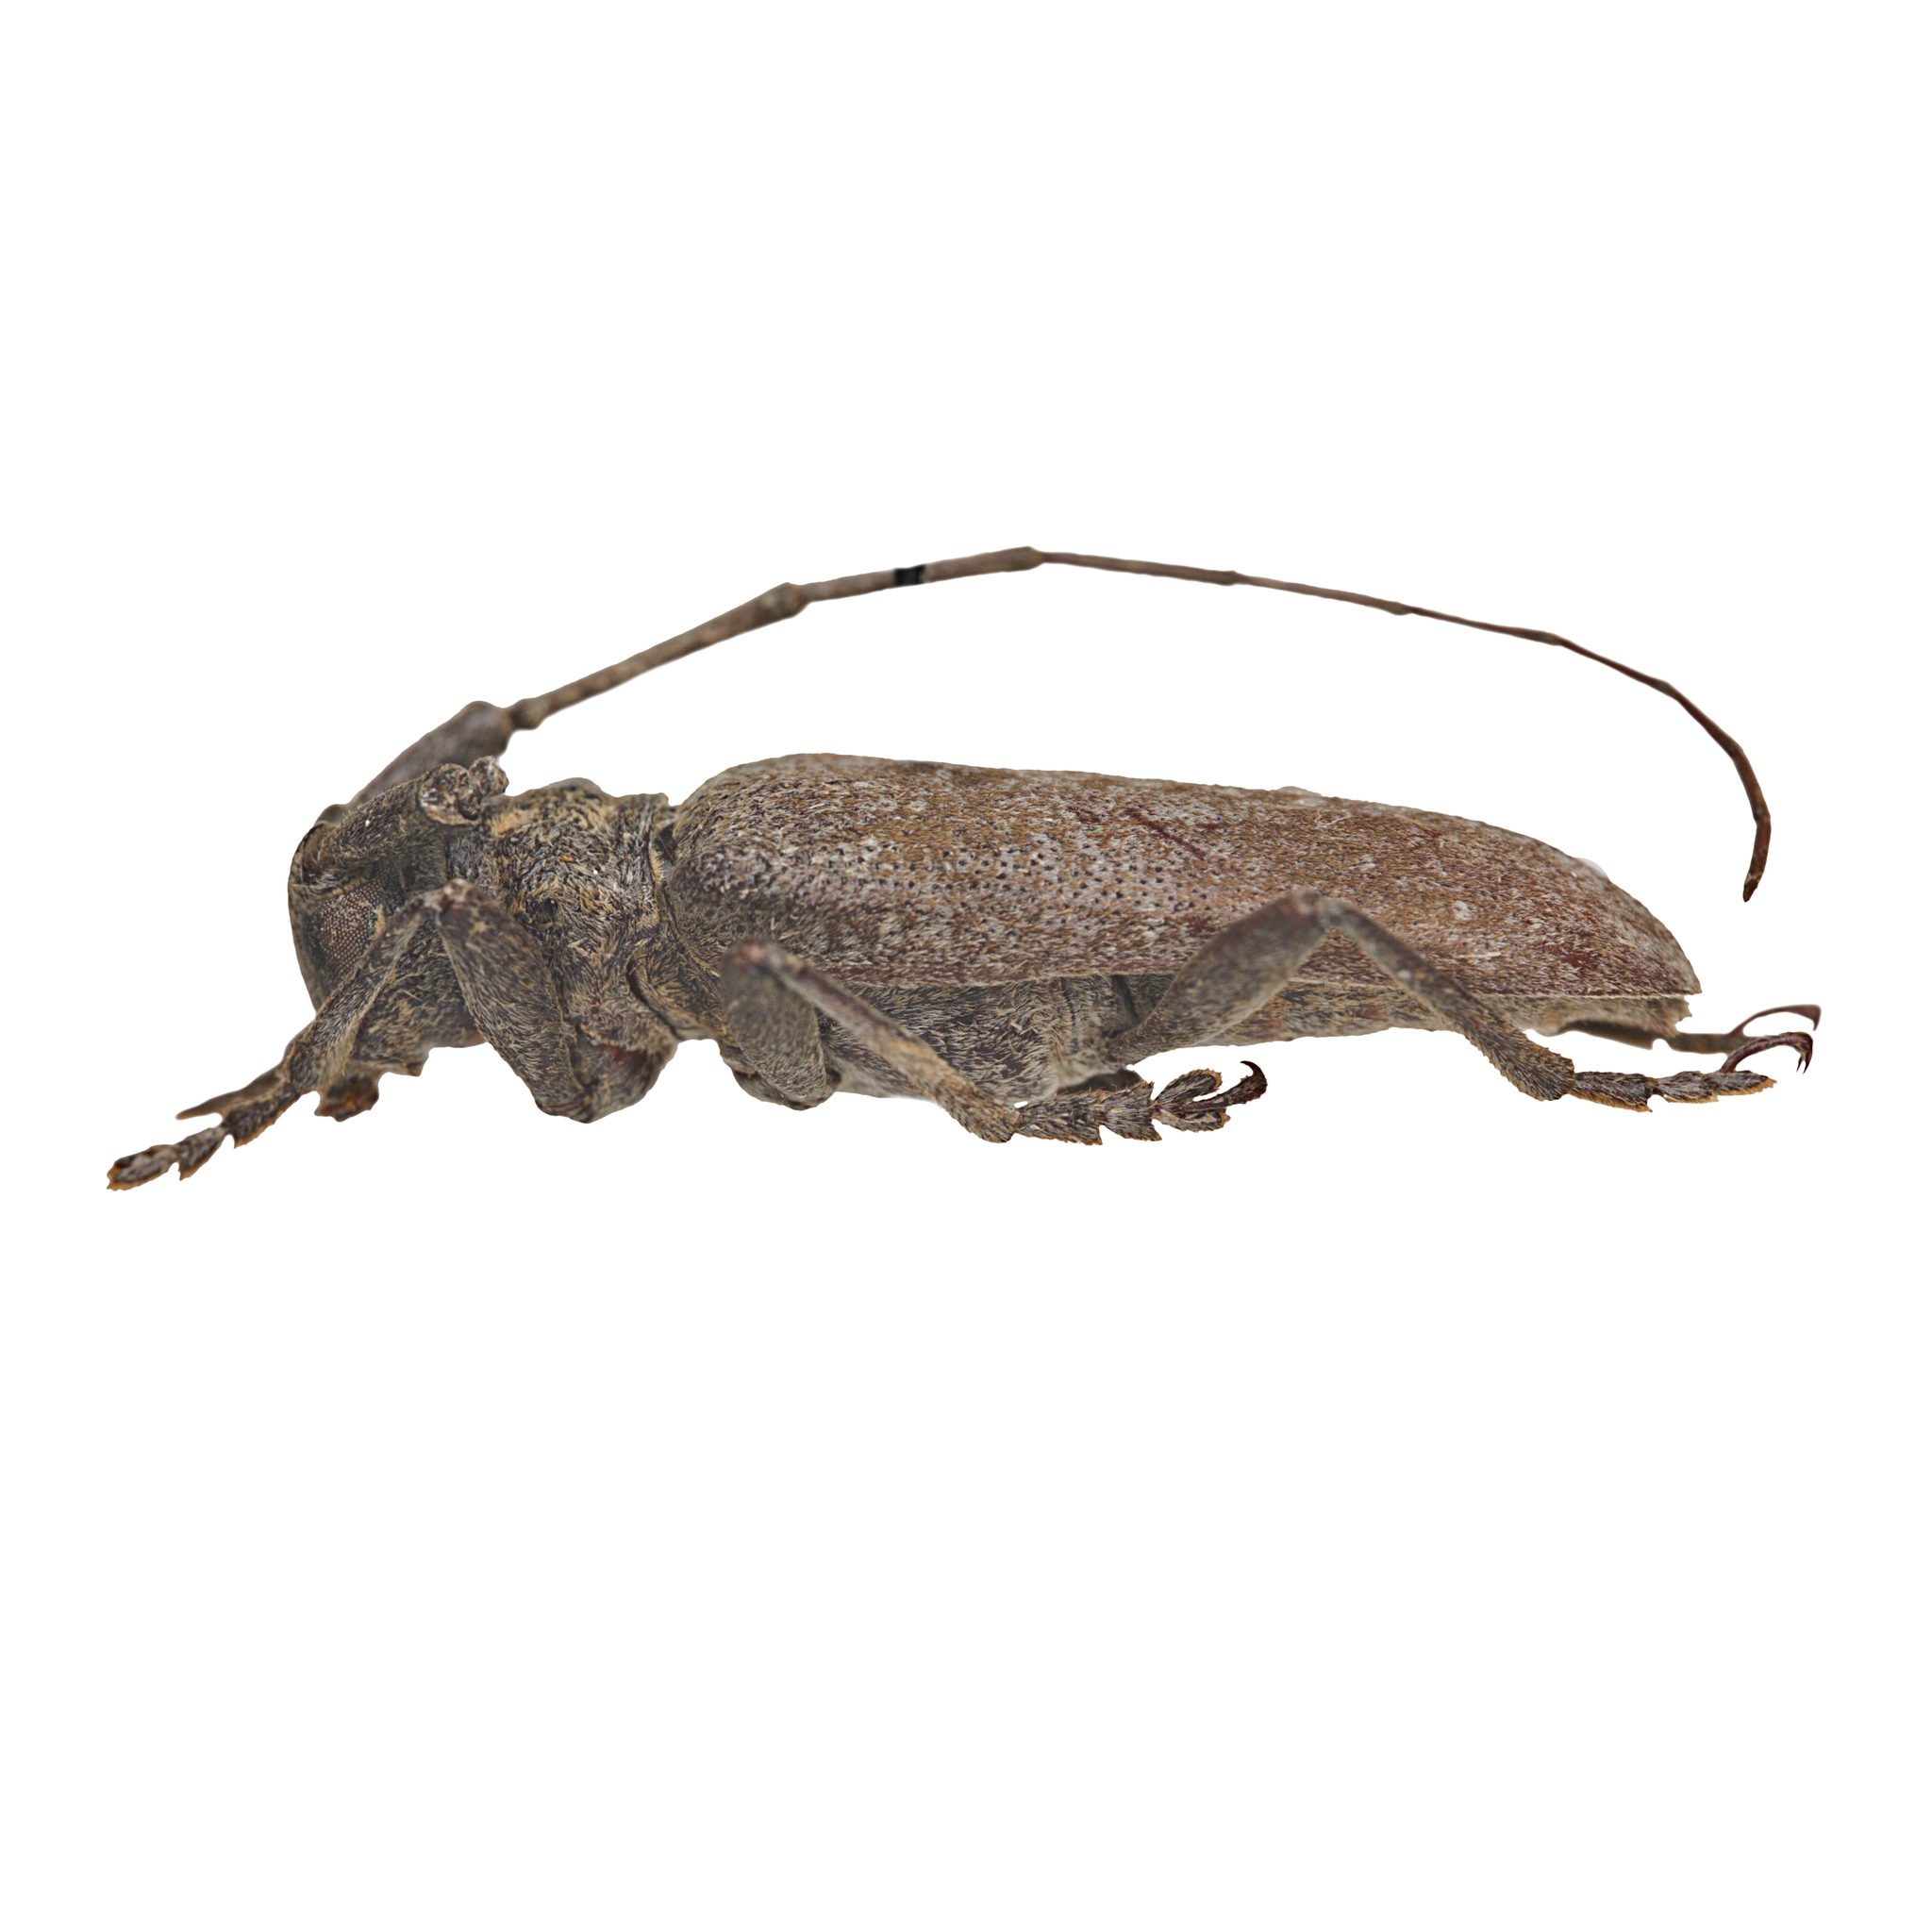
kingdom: Animalia
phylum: Arthropoda
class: Insecta
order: Coleoptera
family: Cerambycidae
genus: Goes
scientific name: Goes novus
